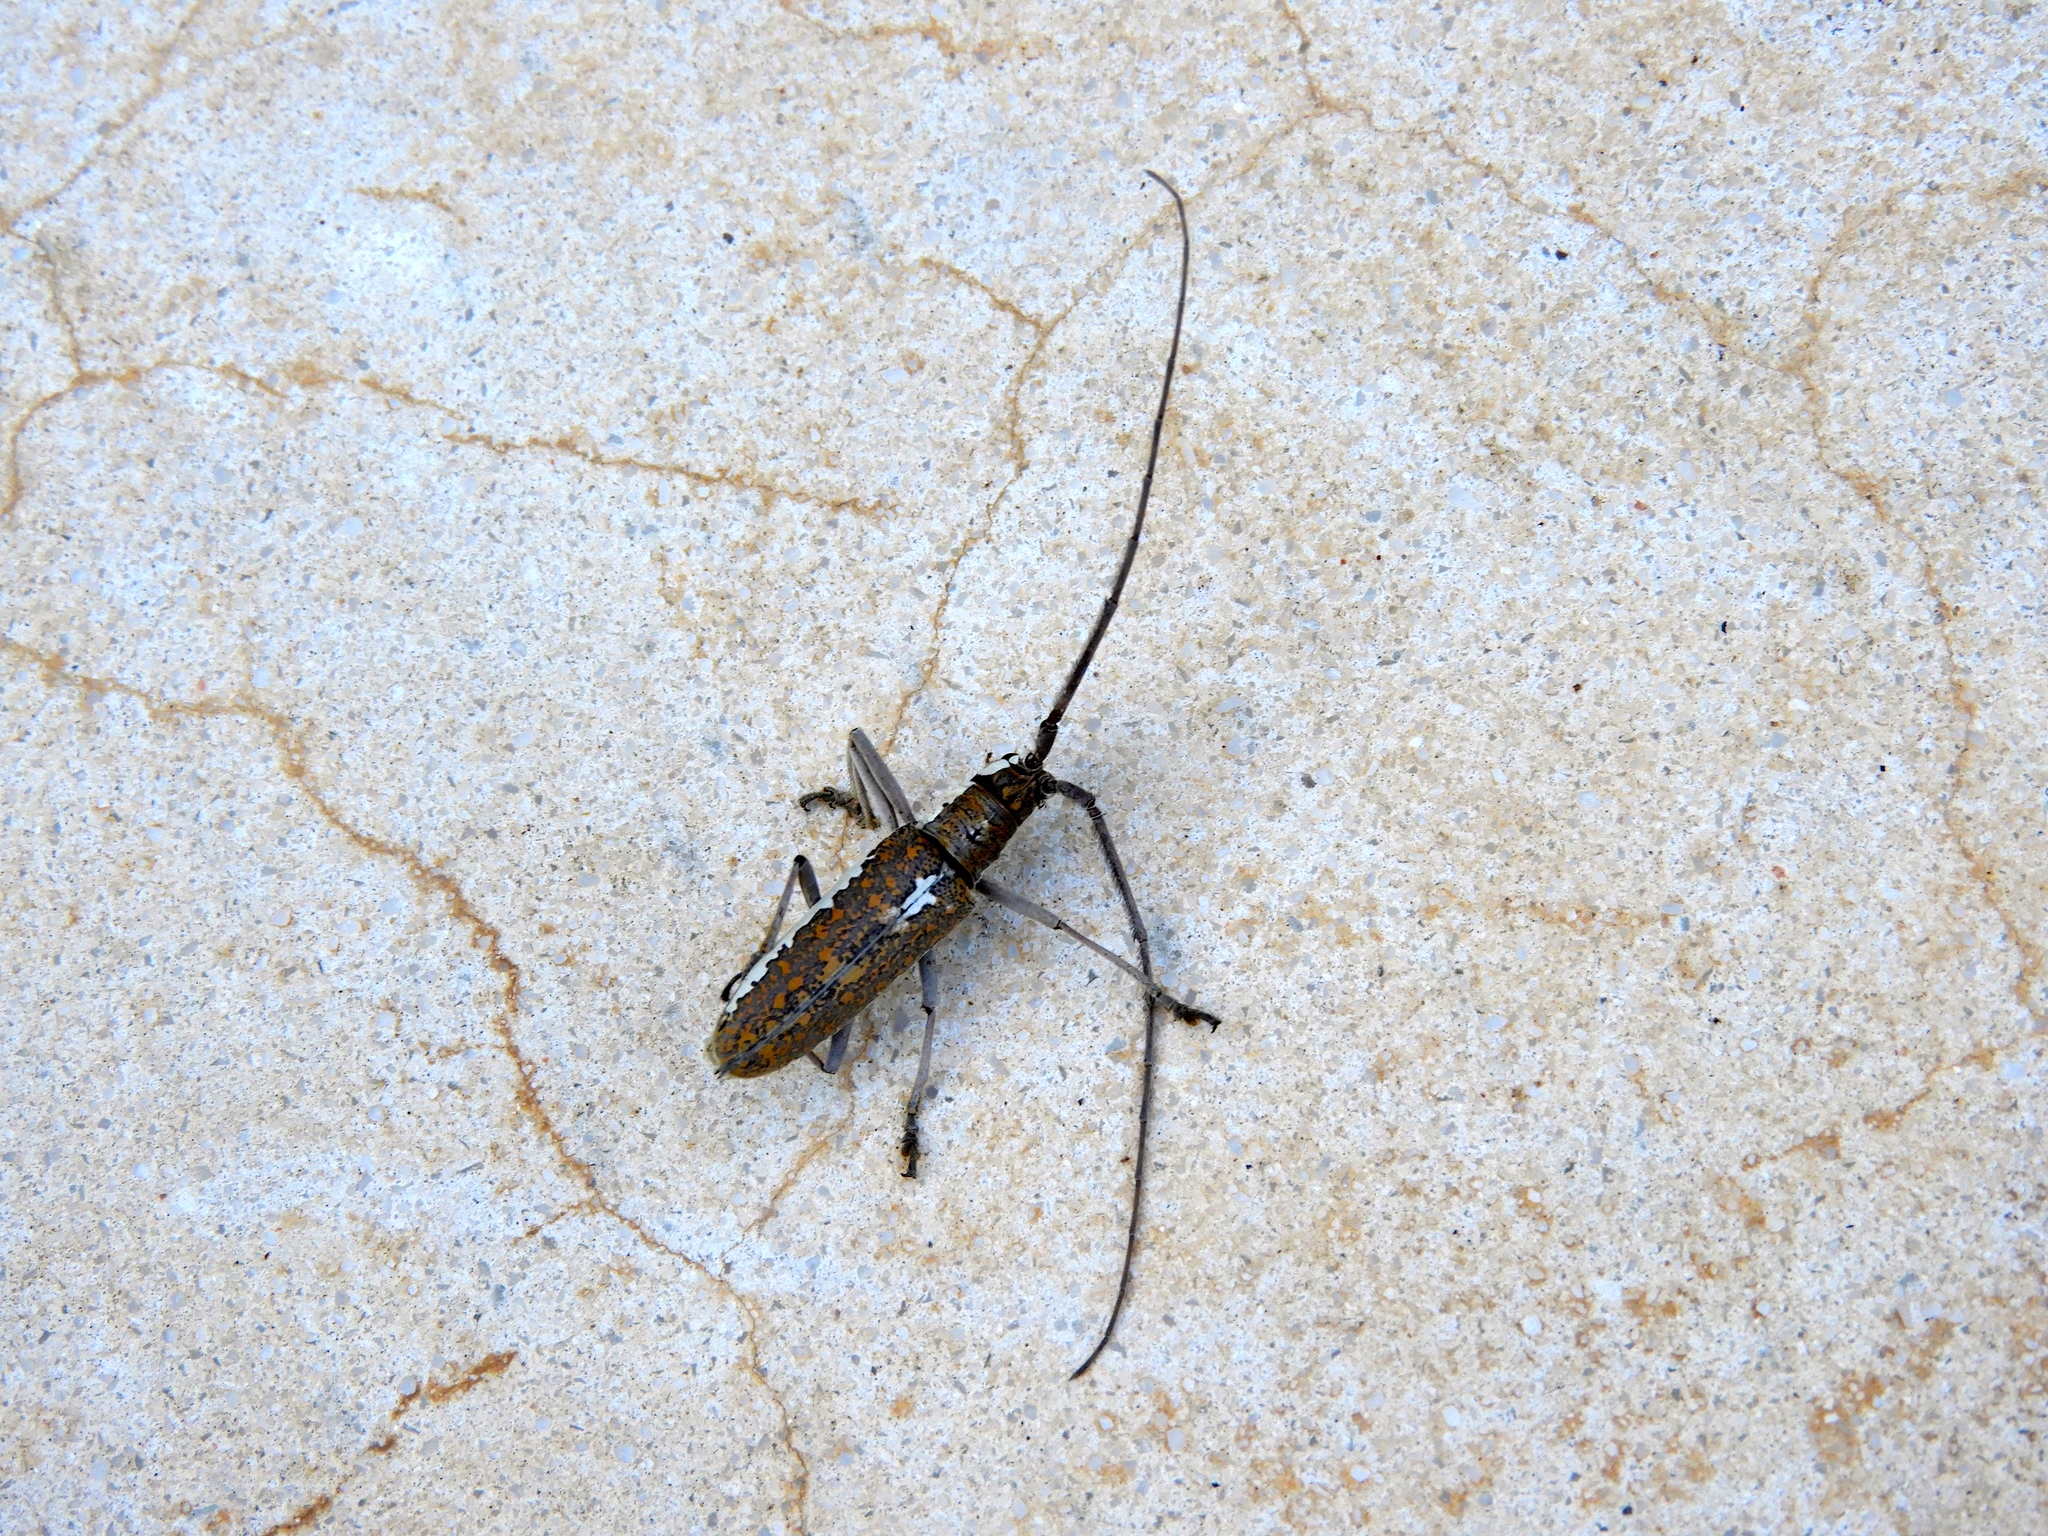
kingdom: Animalia
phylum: Arthropoda
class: Insecta
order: Coleoptera
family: Cerambycidae
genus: Neoptychodes
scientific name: Neoptychodes trilineatus
